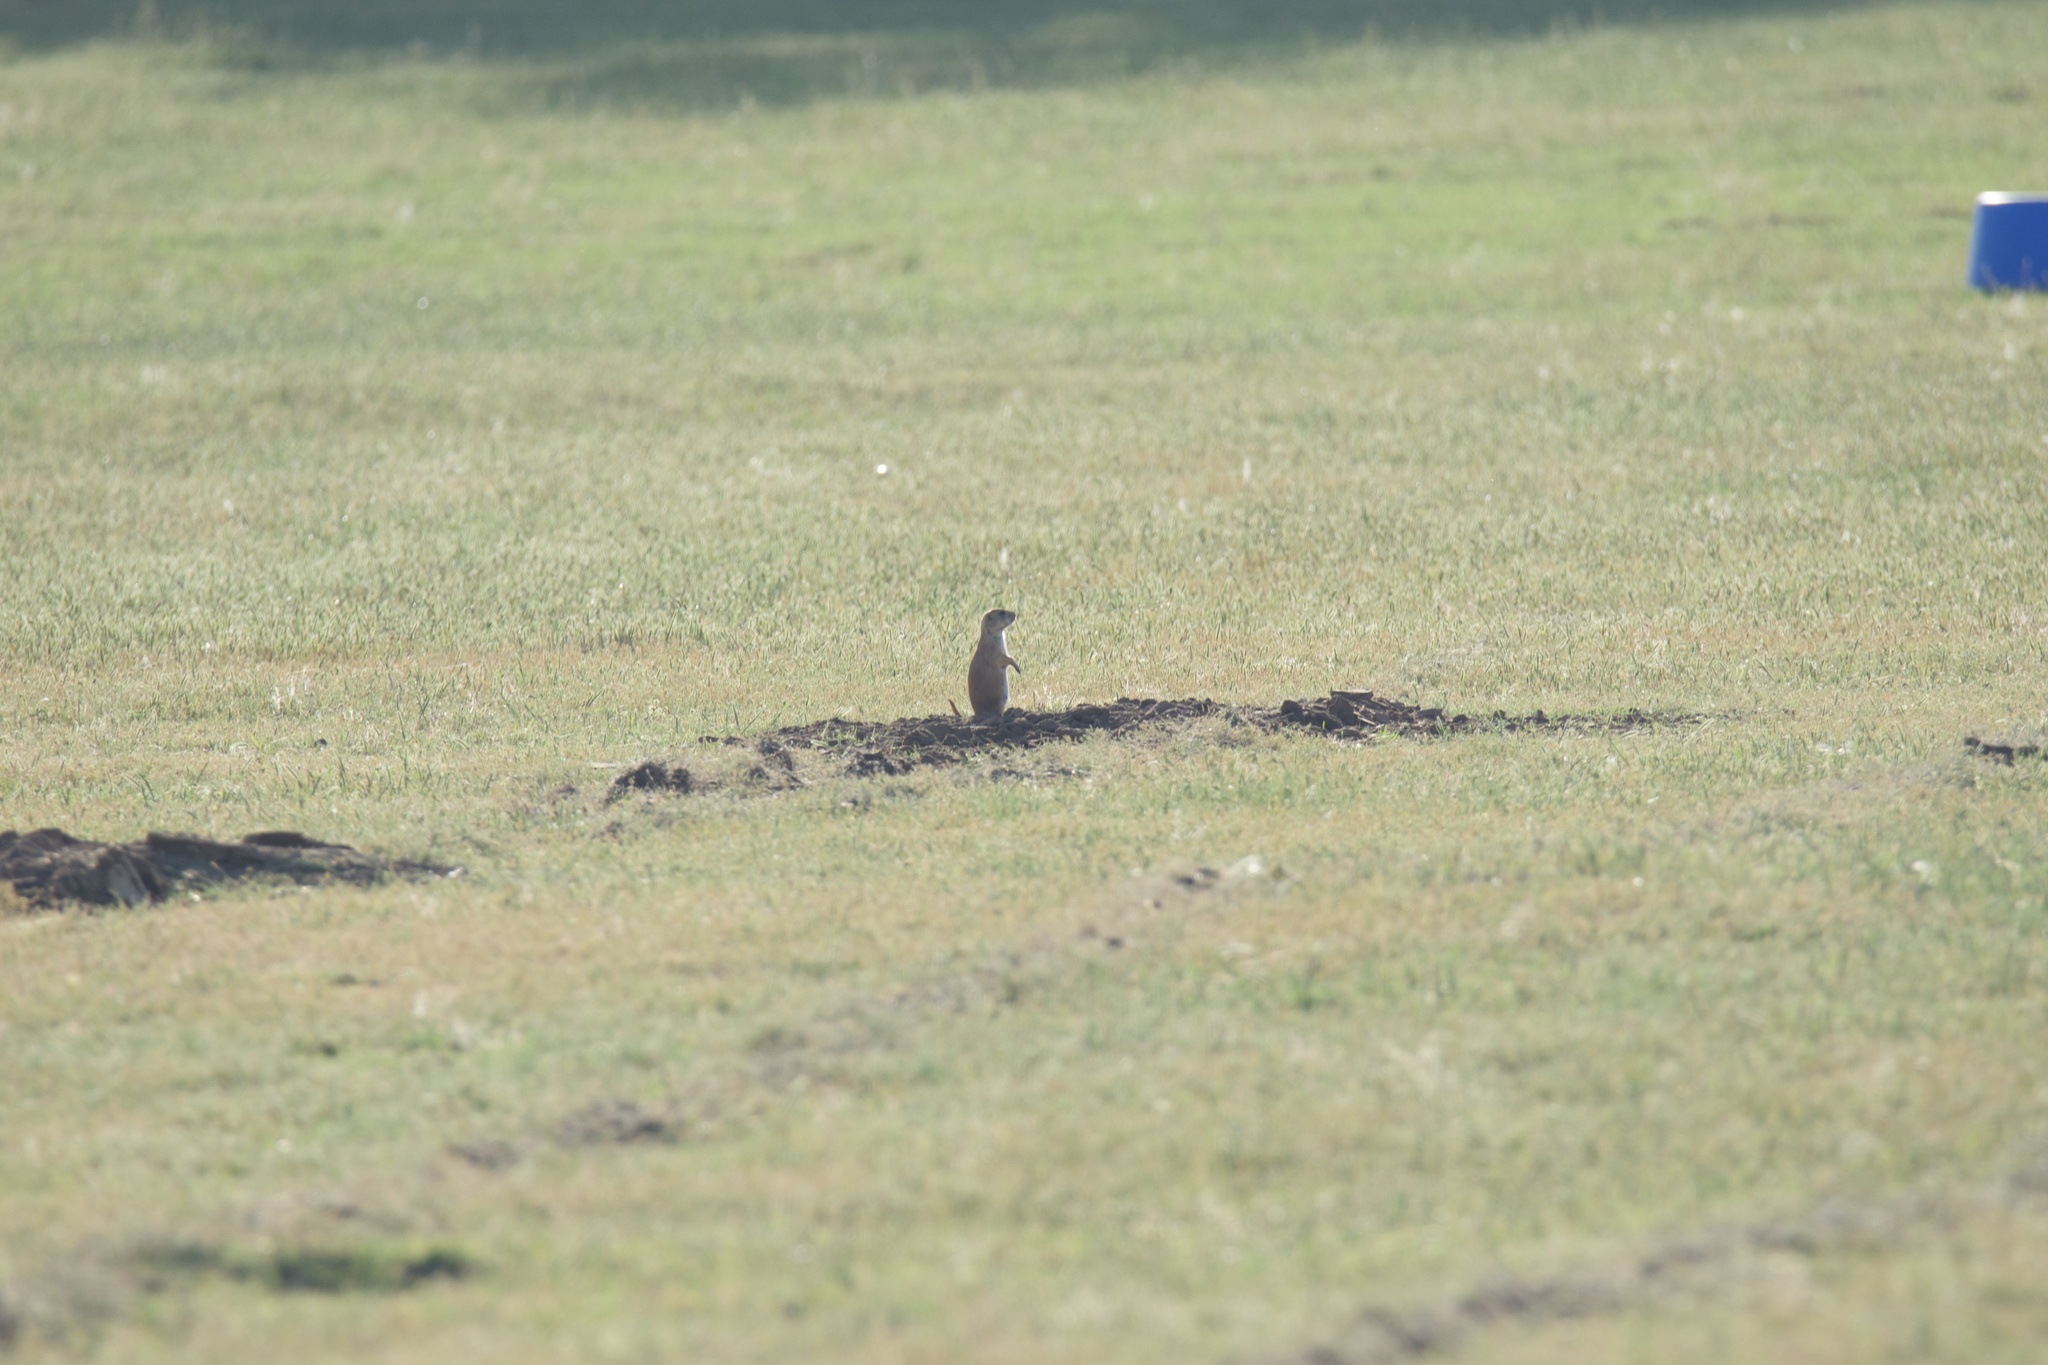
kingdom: Animalia
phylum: Chordata
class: Mammalia
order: Rodentia
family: Sciuridae
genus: Cynomys
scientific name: Cynomys ludovicianus
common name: Black-tailed prairie dog
